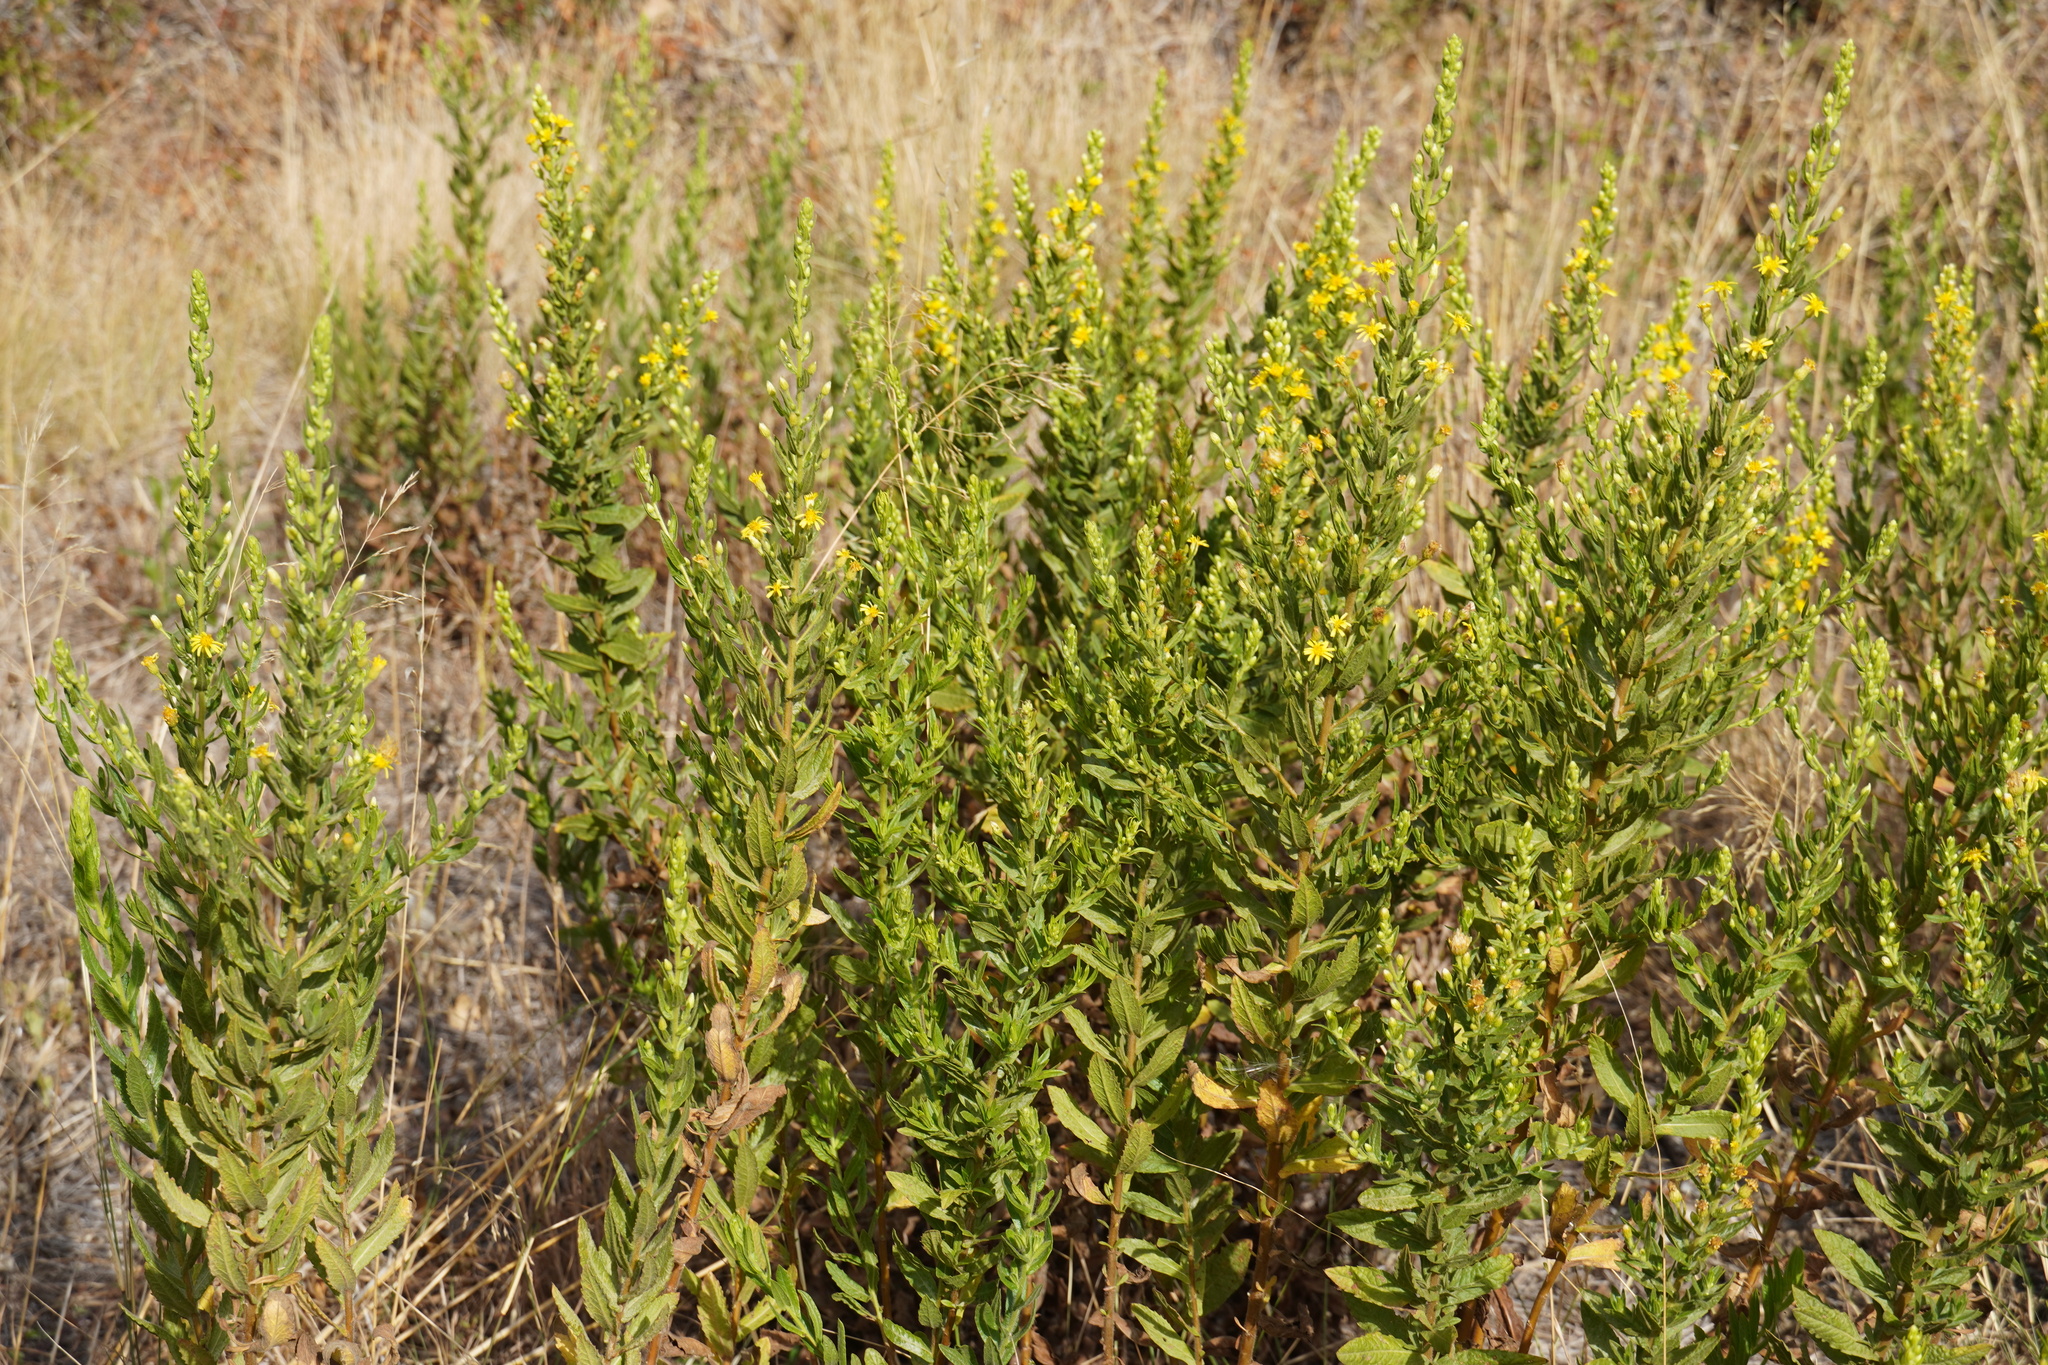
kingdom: Plantae
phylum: Tracheophyta
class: Magnoliopsida
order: Asterales
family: Asteraceae
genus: Dittrichia
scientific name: Dittrichia viscosa
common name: Woody fleabane
